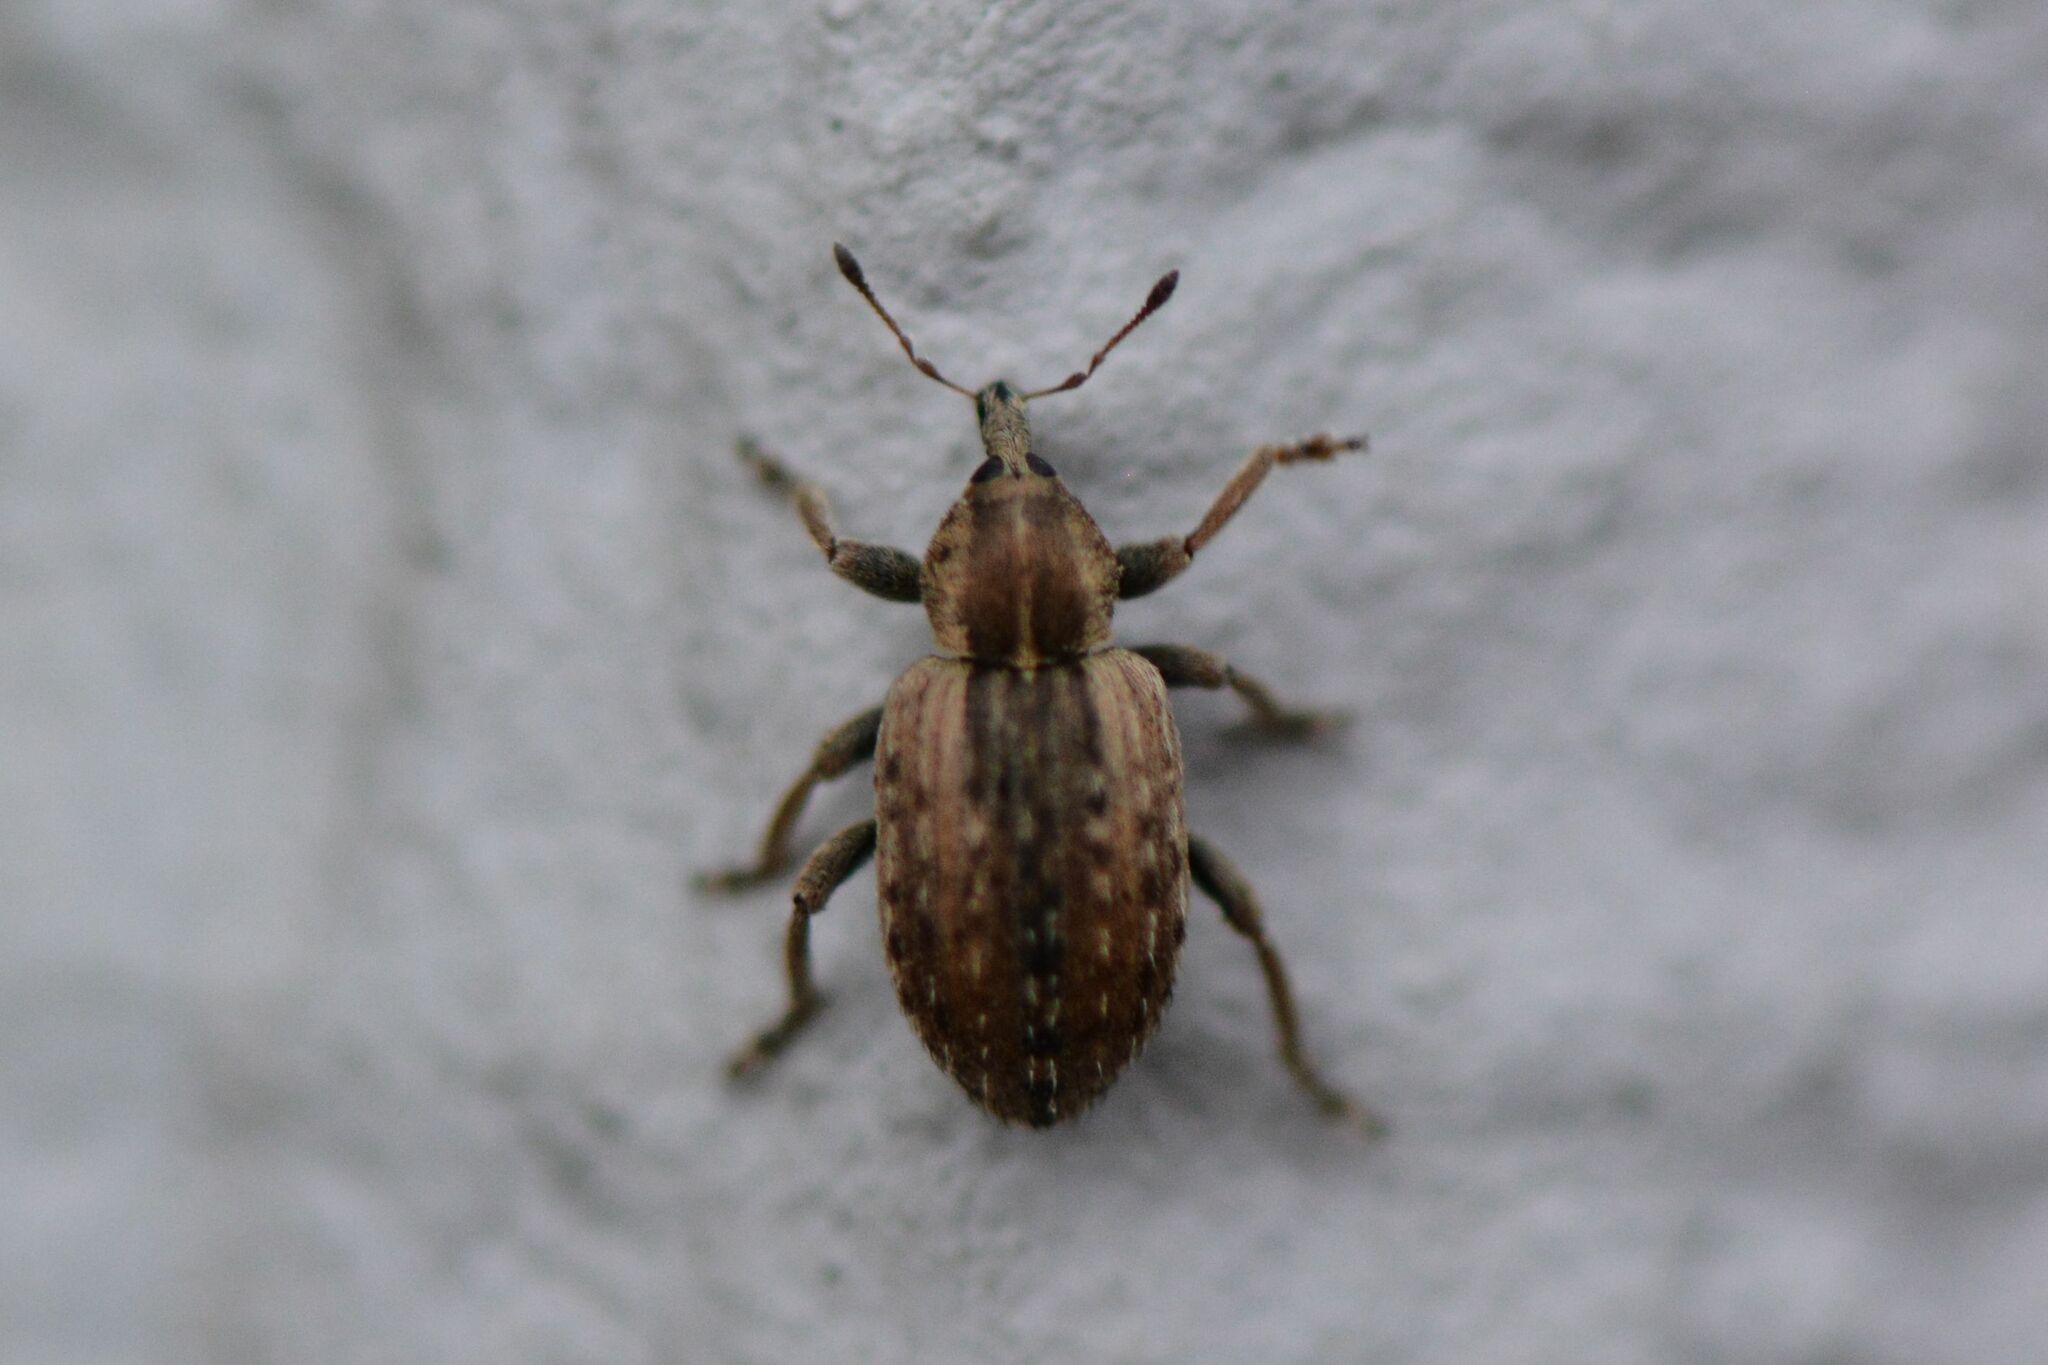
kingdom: Animalia
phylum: Arthropoda
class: Insecta
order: Coleoptera
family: Curculionidae
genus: Hypera
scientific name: Hypera postica
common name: Weevil
